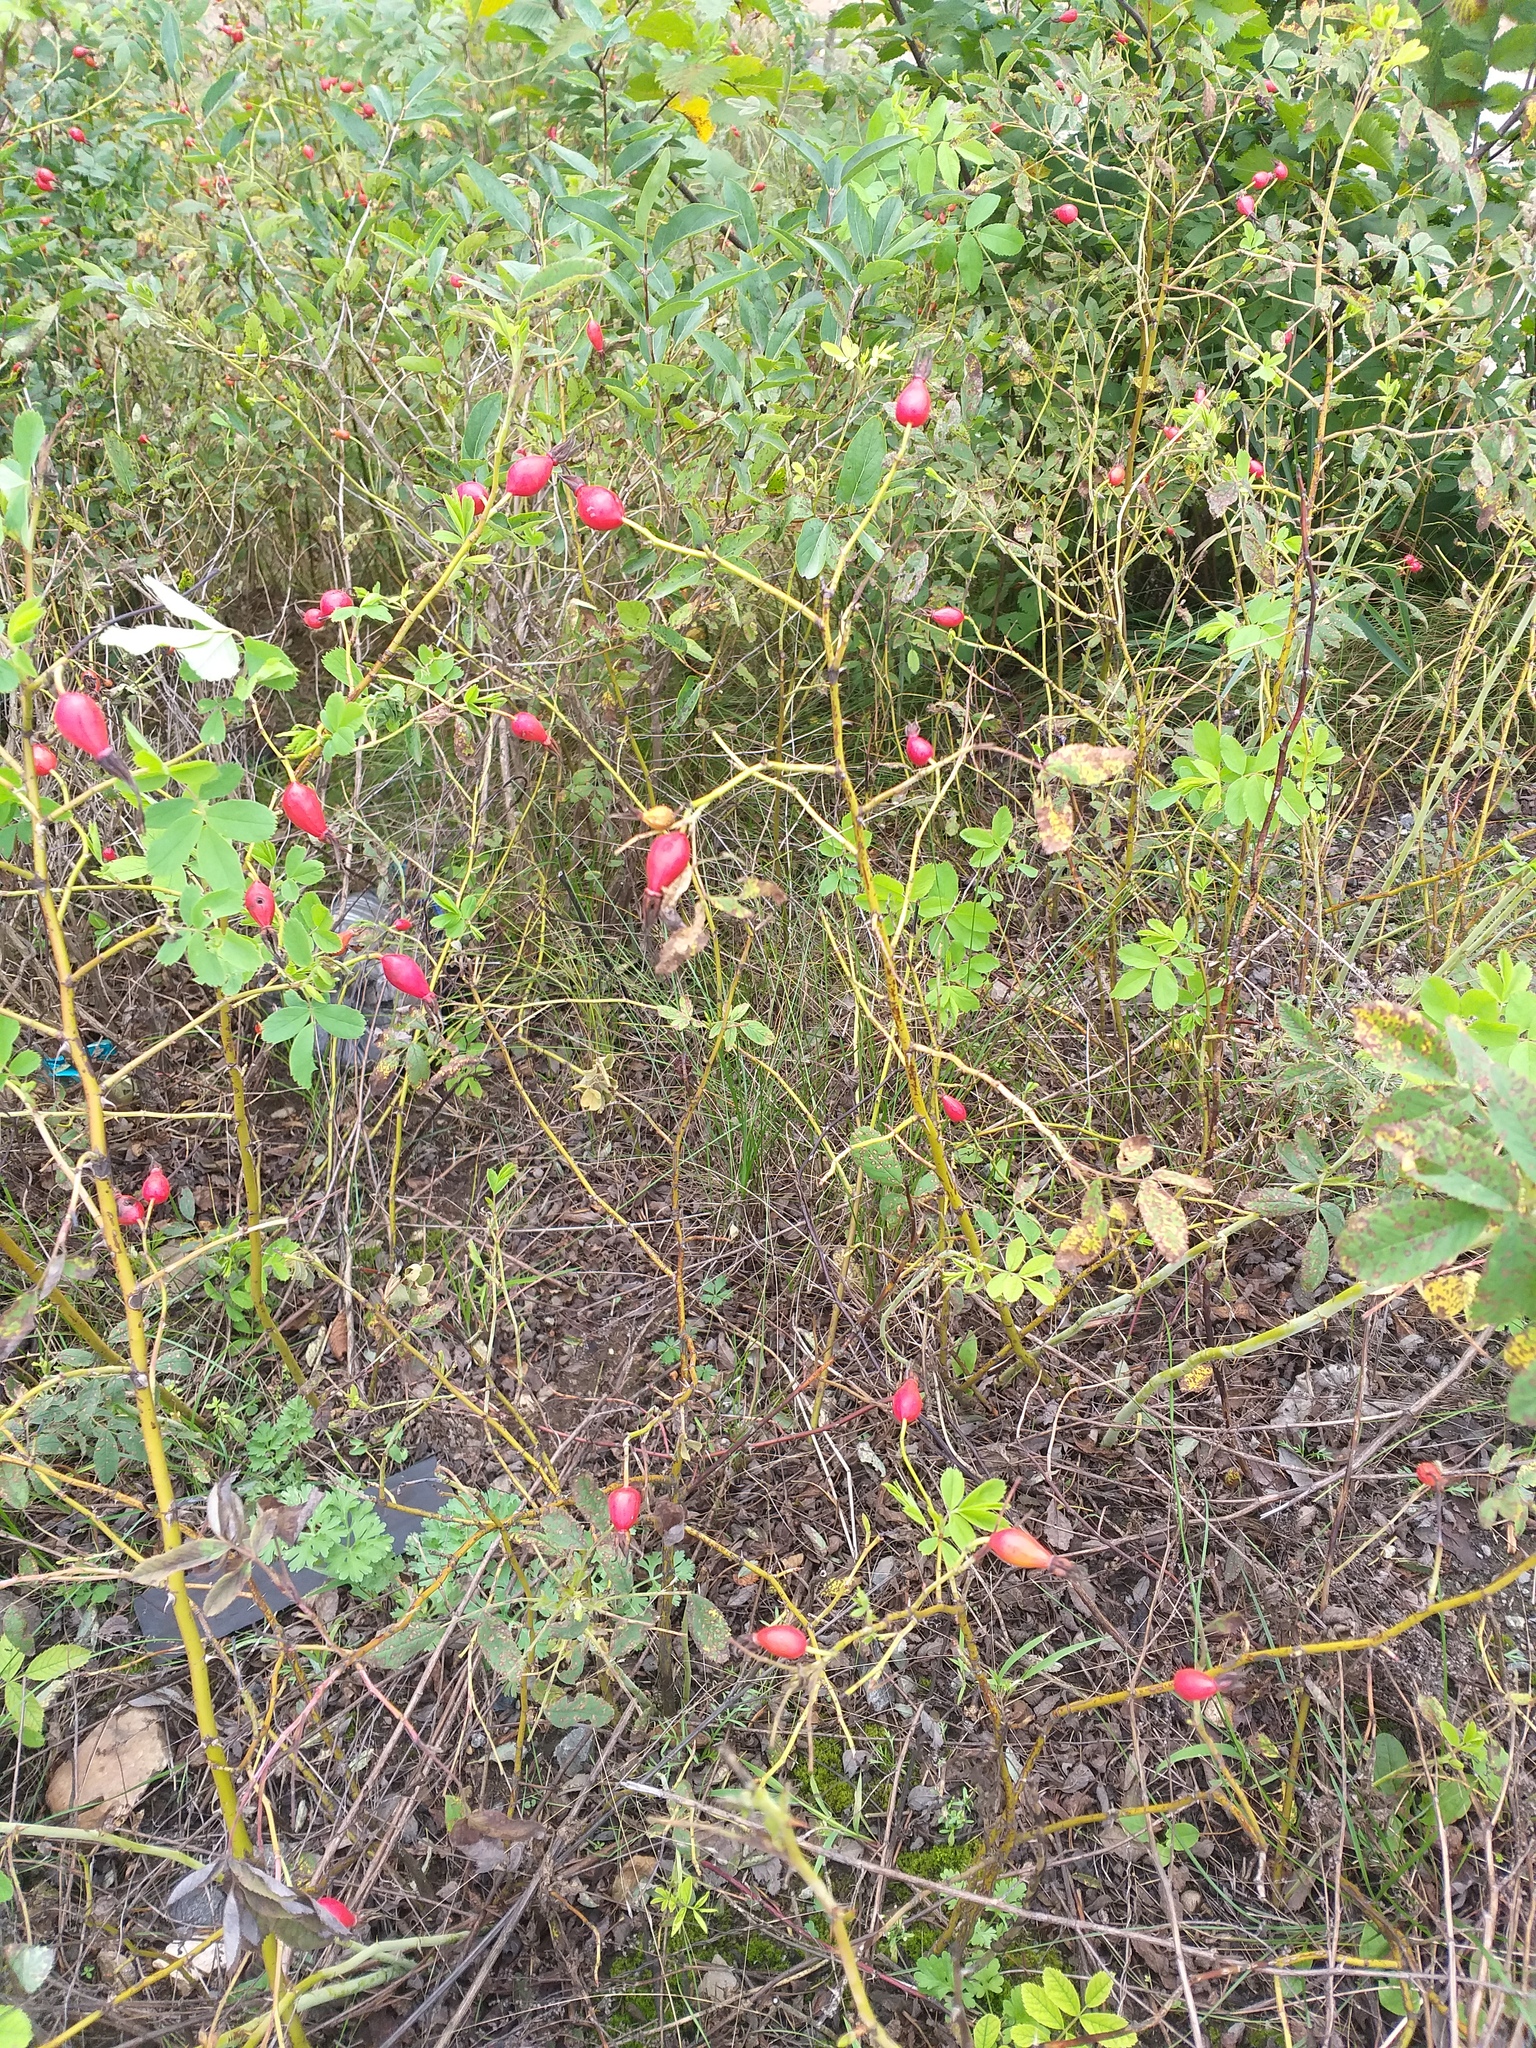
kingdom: Plantae
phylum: Tracheophyta
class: Magnoliopsida
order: Rosales
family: Rosaceae
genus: Rosa
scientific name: Rosa majalis
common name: Cinnamon rose
